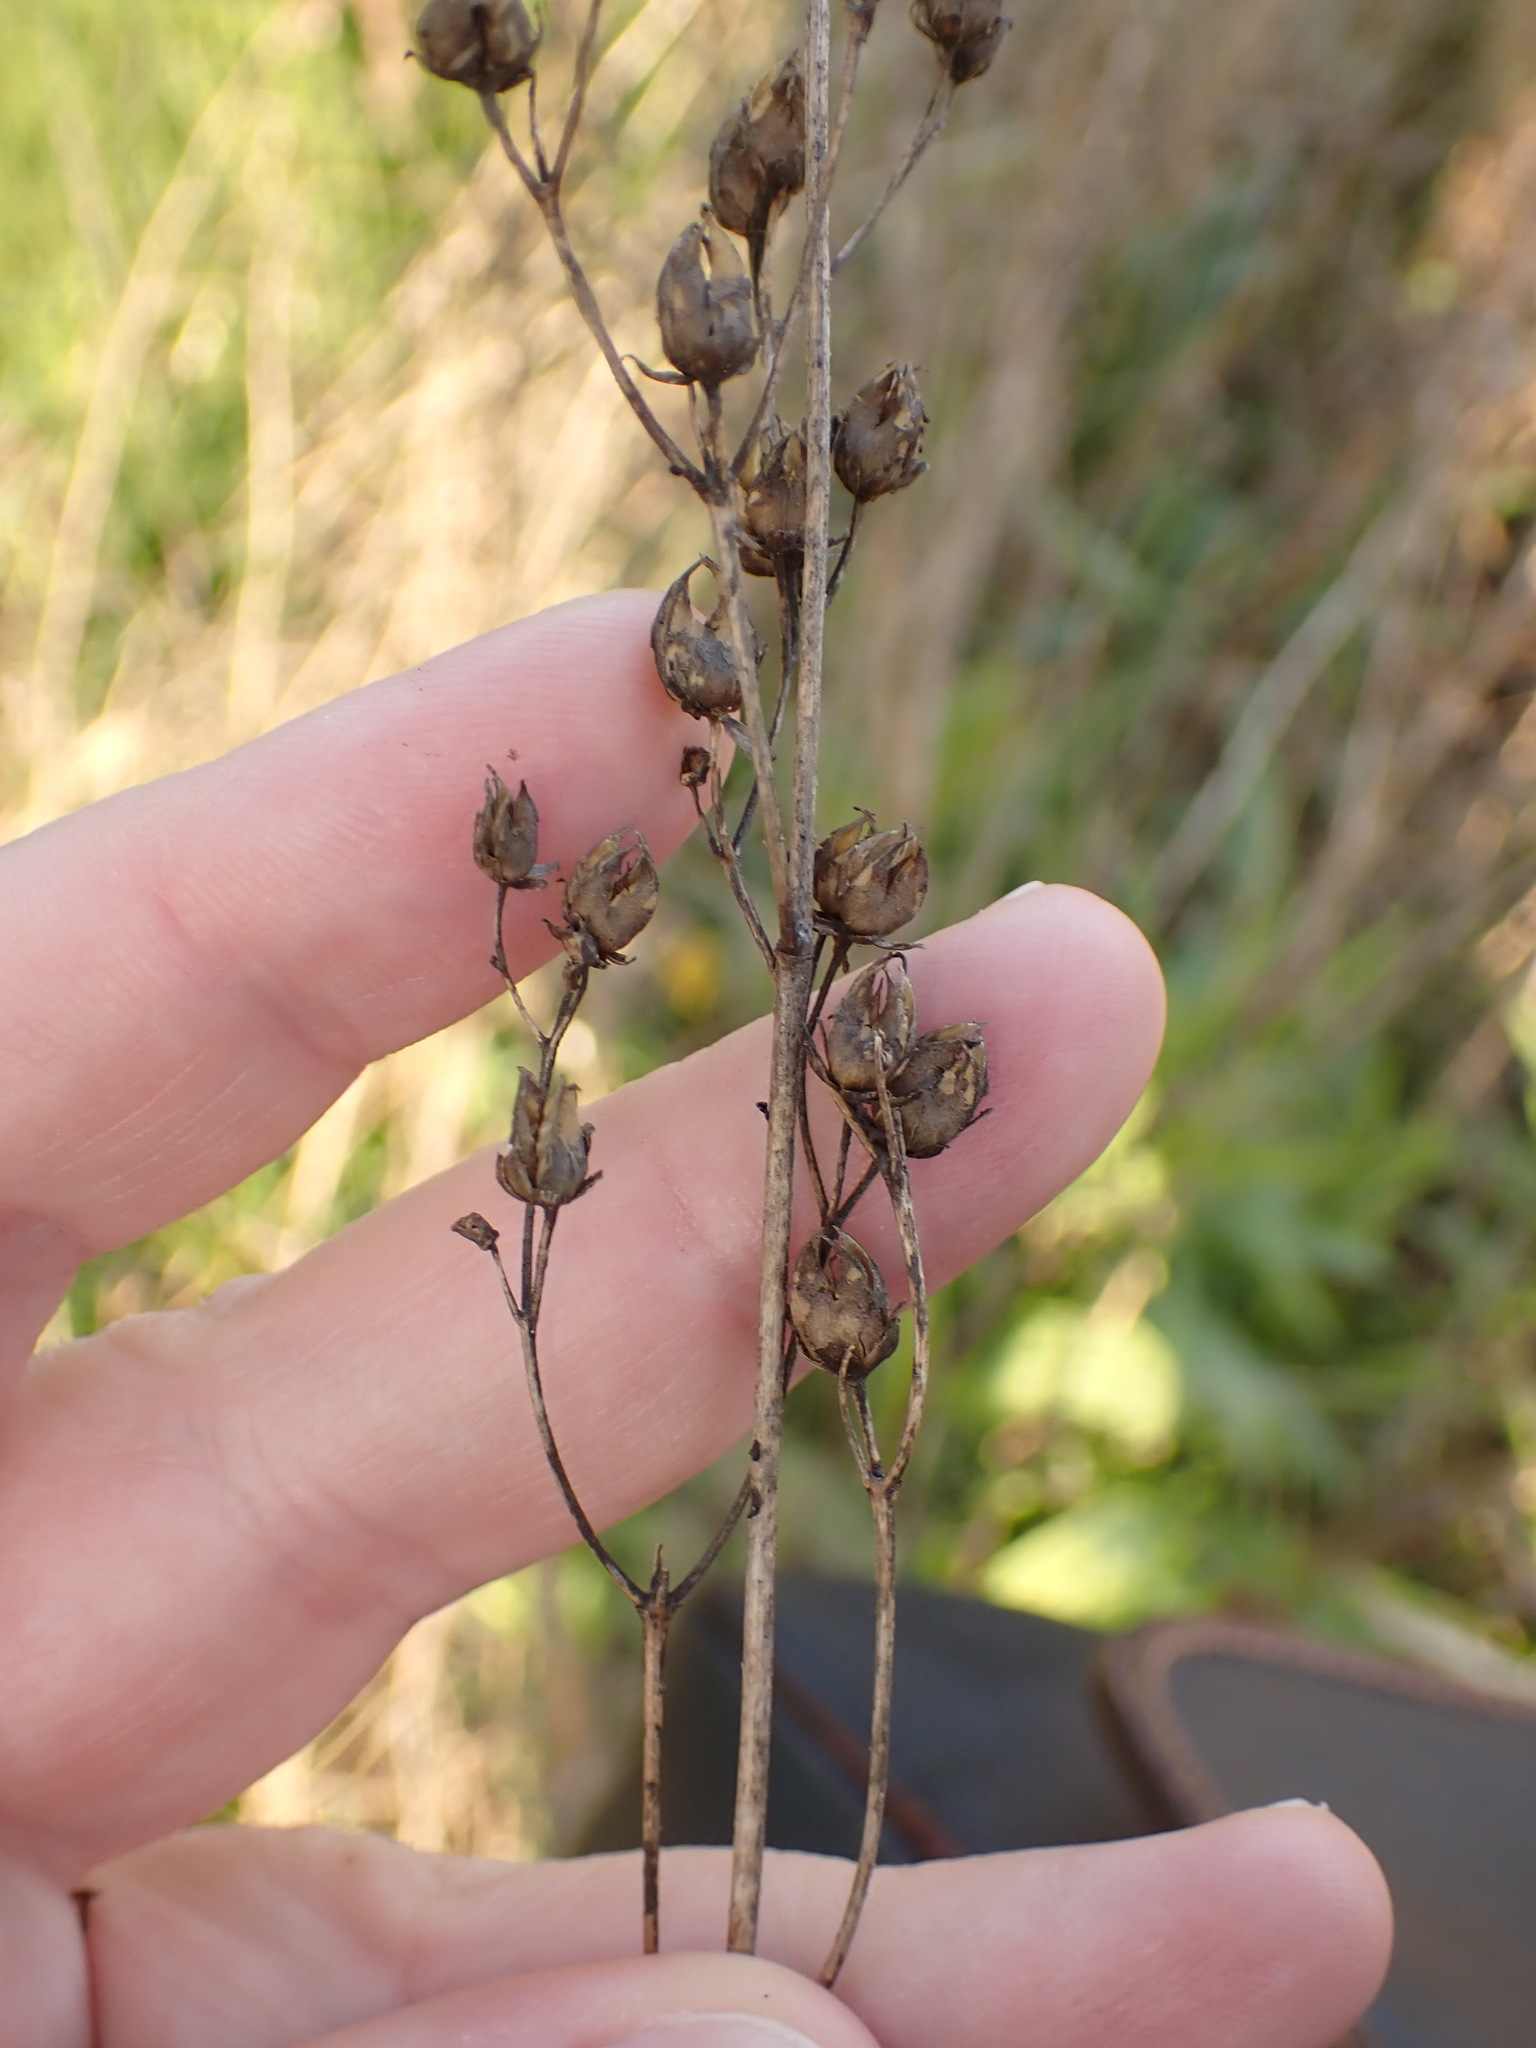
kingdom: Plantae
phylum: Tracheophyta
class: Magnoliopsida
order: Lamiales
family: Plantaginaceae
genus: Penstemon
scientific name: Penstemon digitalis
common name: Foxglove beardtongue
